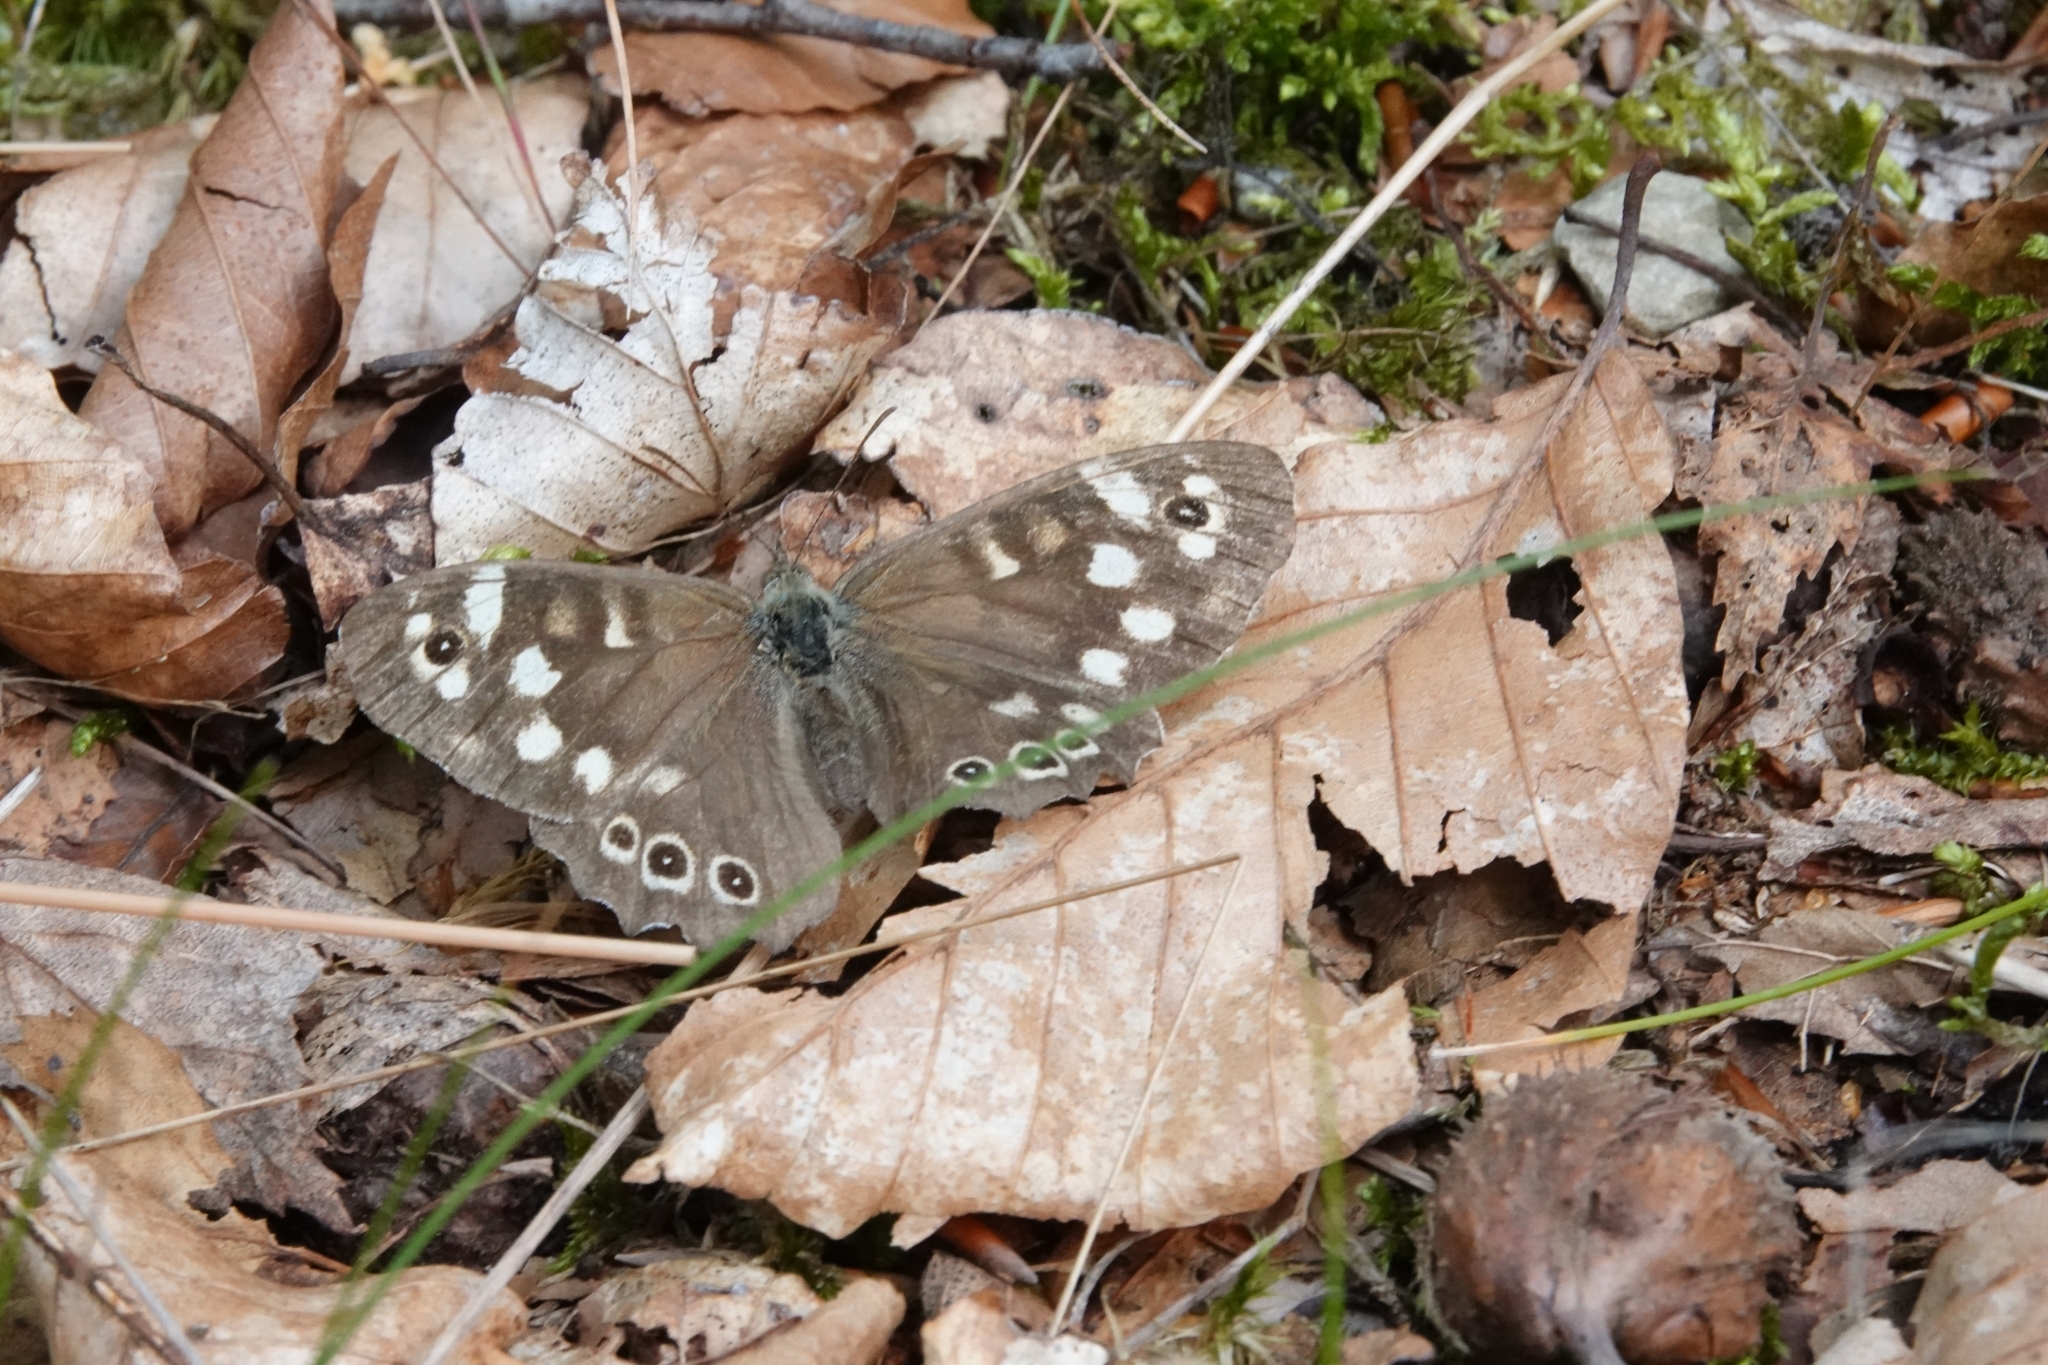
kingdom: Animalia
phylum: Arthropoda
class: Insecta
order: Lepidoptera
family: Nymphalidae
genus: Pararge
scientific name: Pararge aegeria
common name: Speckled wood
